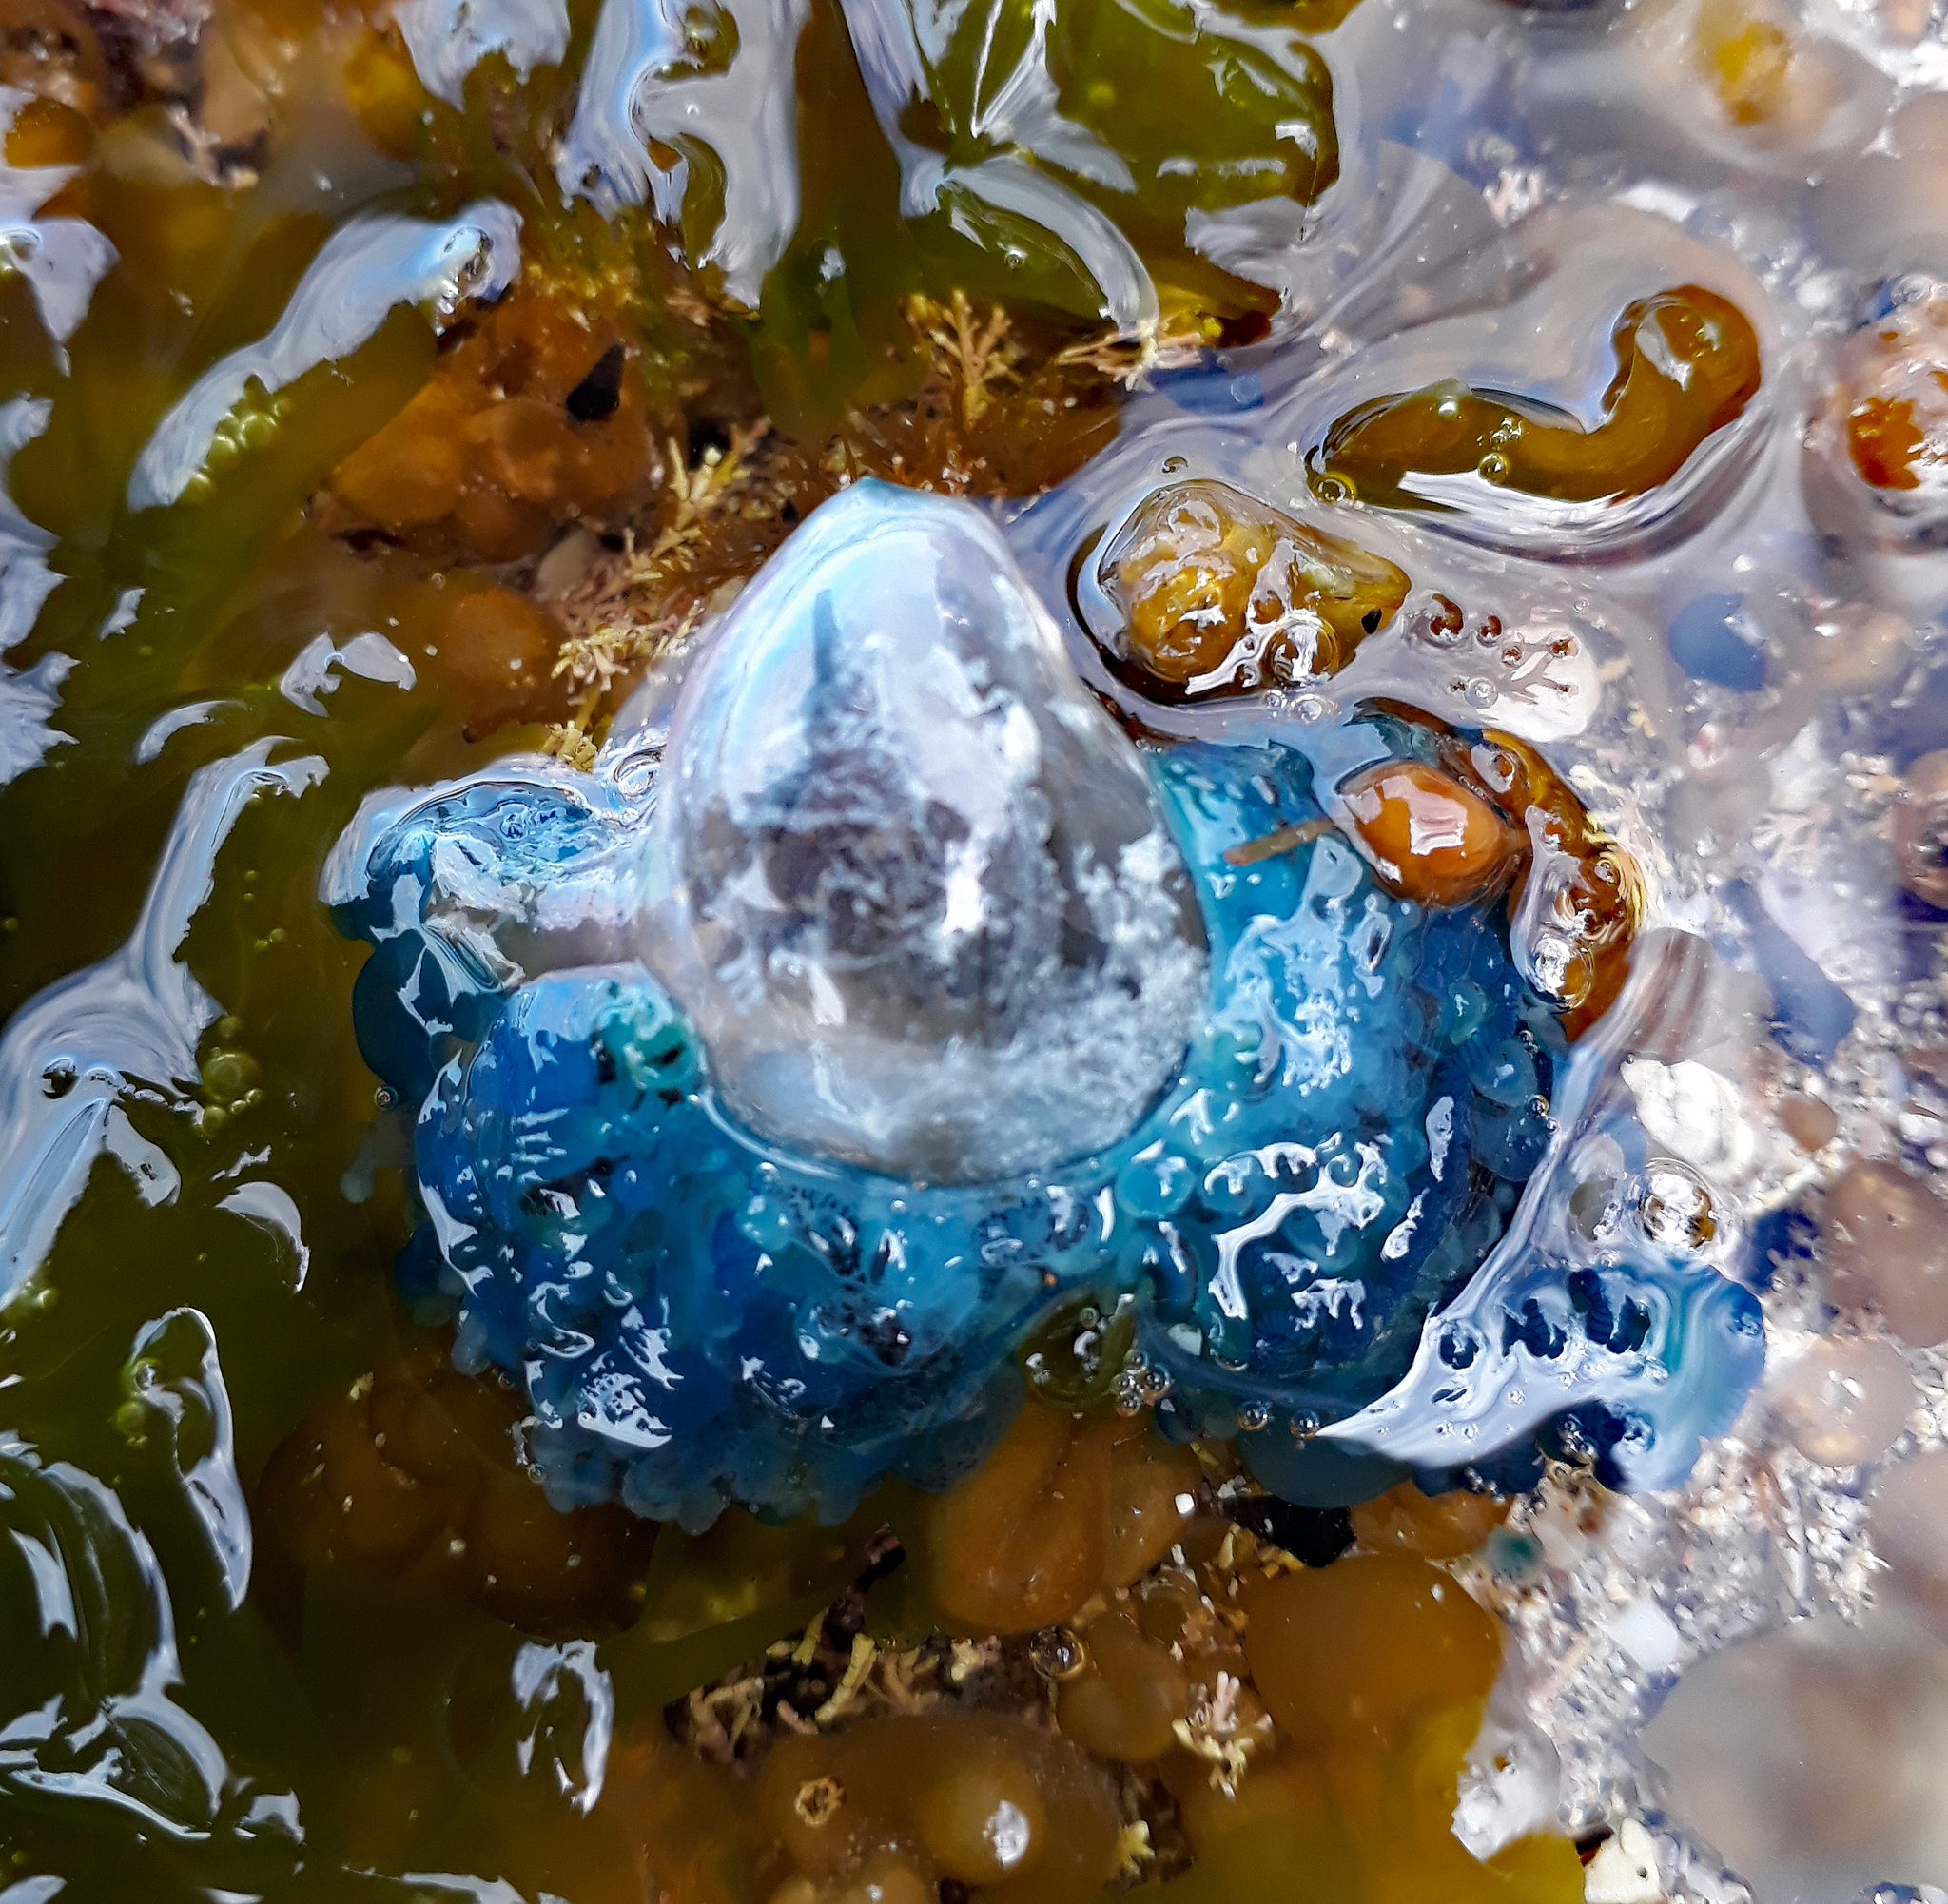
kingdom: Animalia
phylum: Cnidaria
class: Hydrozoa
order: Siphonophorae
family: Physaliidae
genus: Physalia
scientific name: Physalia physalis
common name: Portuguese man-of-war
